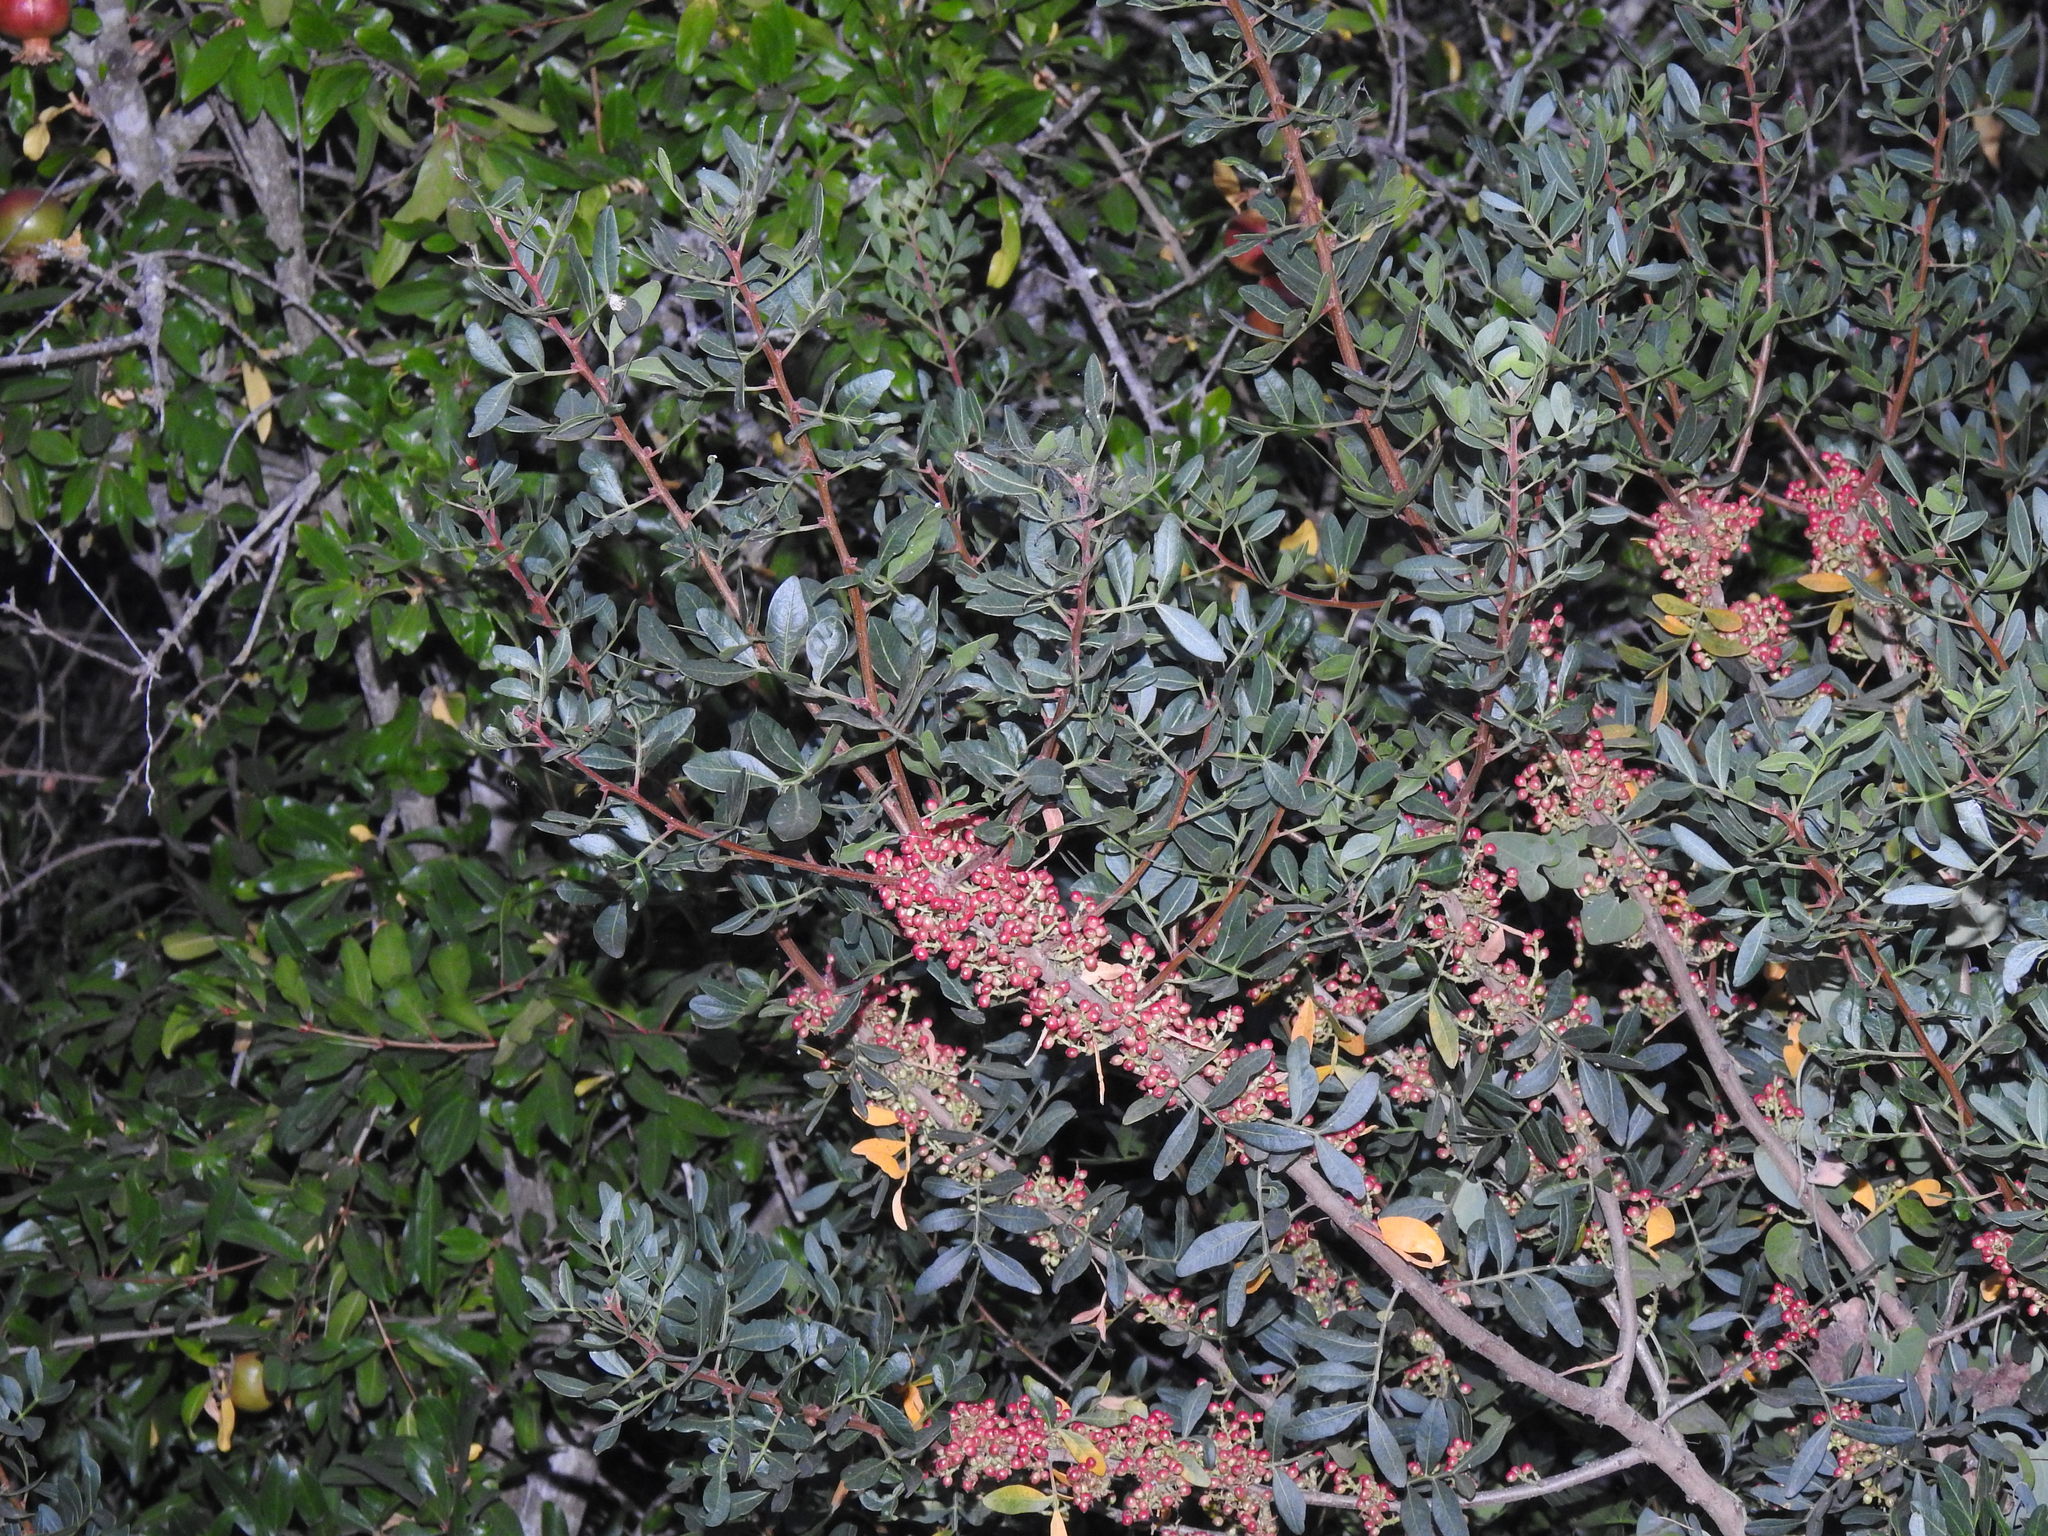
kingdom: Plantae
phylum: Tracheophyta
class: Magnoliopsida
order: Sapindales
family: Anacardiaceae
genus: Pistacia
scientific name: Pistacia lentiscus
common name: Lentisk
